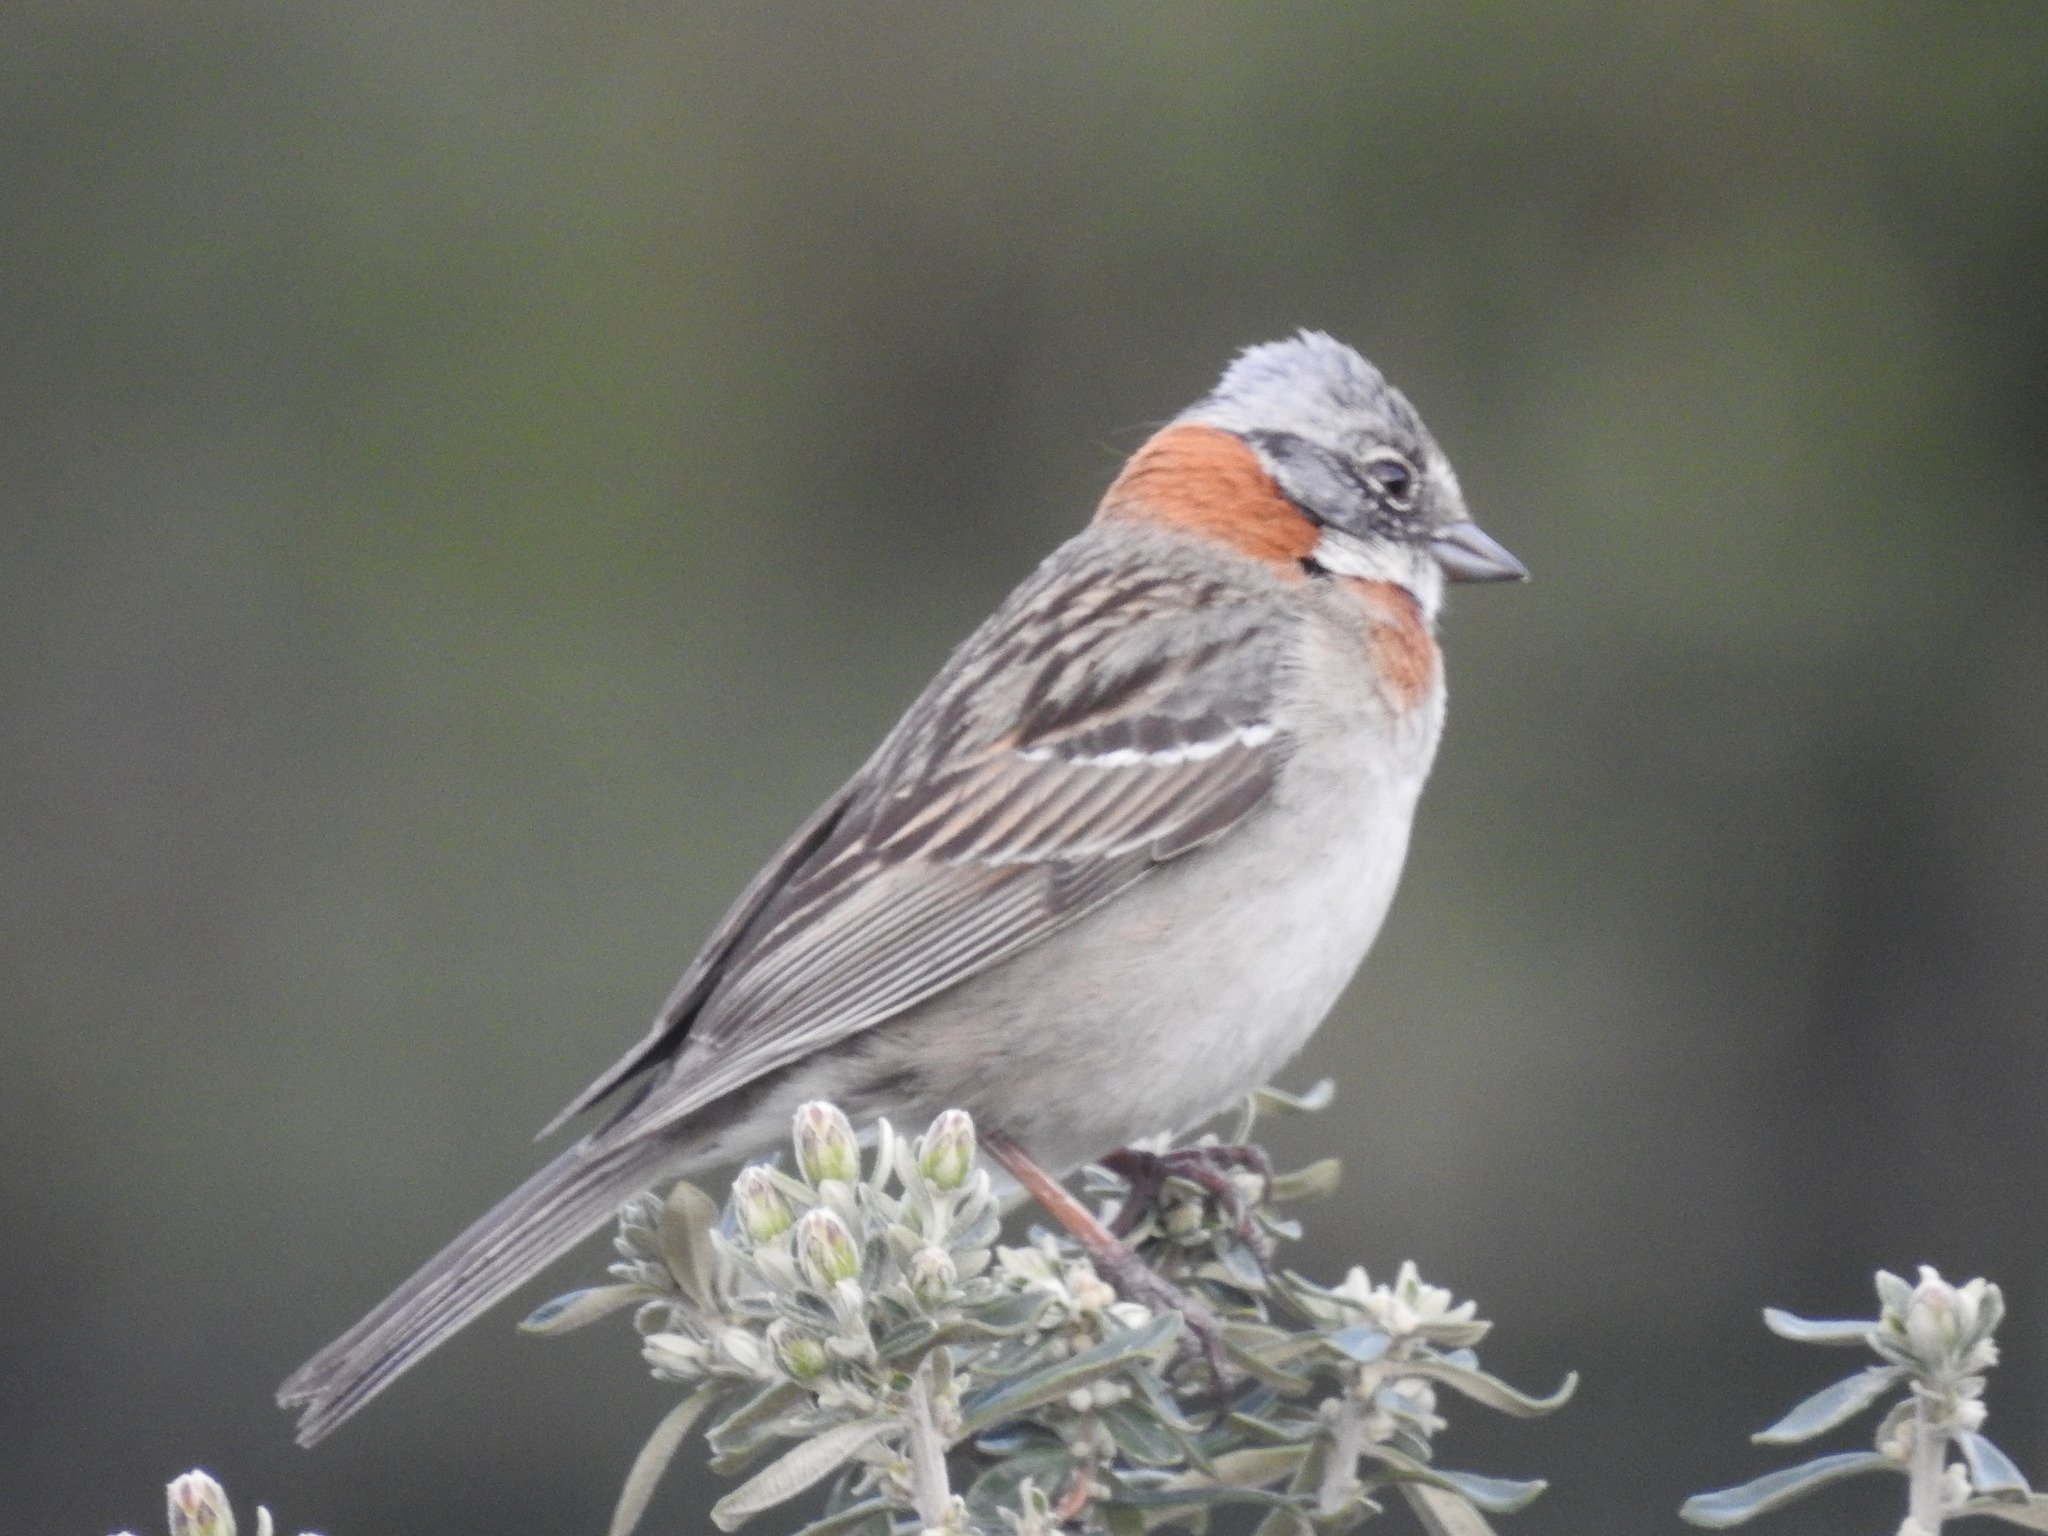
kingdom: Animalia
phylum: Chordata
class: Aves
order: Passeriformes
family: Passerellidae
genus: Zonotrichia
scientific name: Zonotrichia capensis
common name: Rufous-collared sparrow
